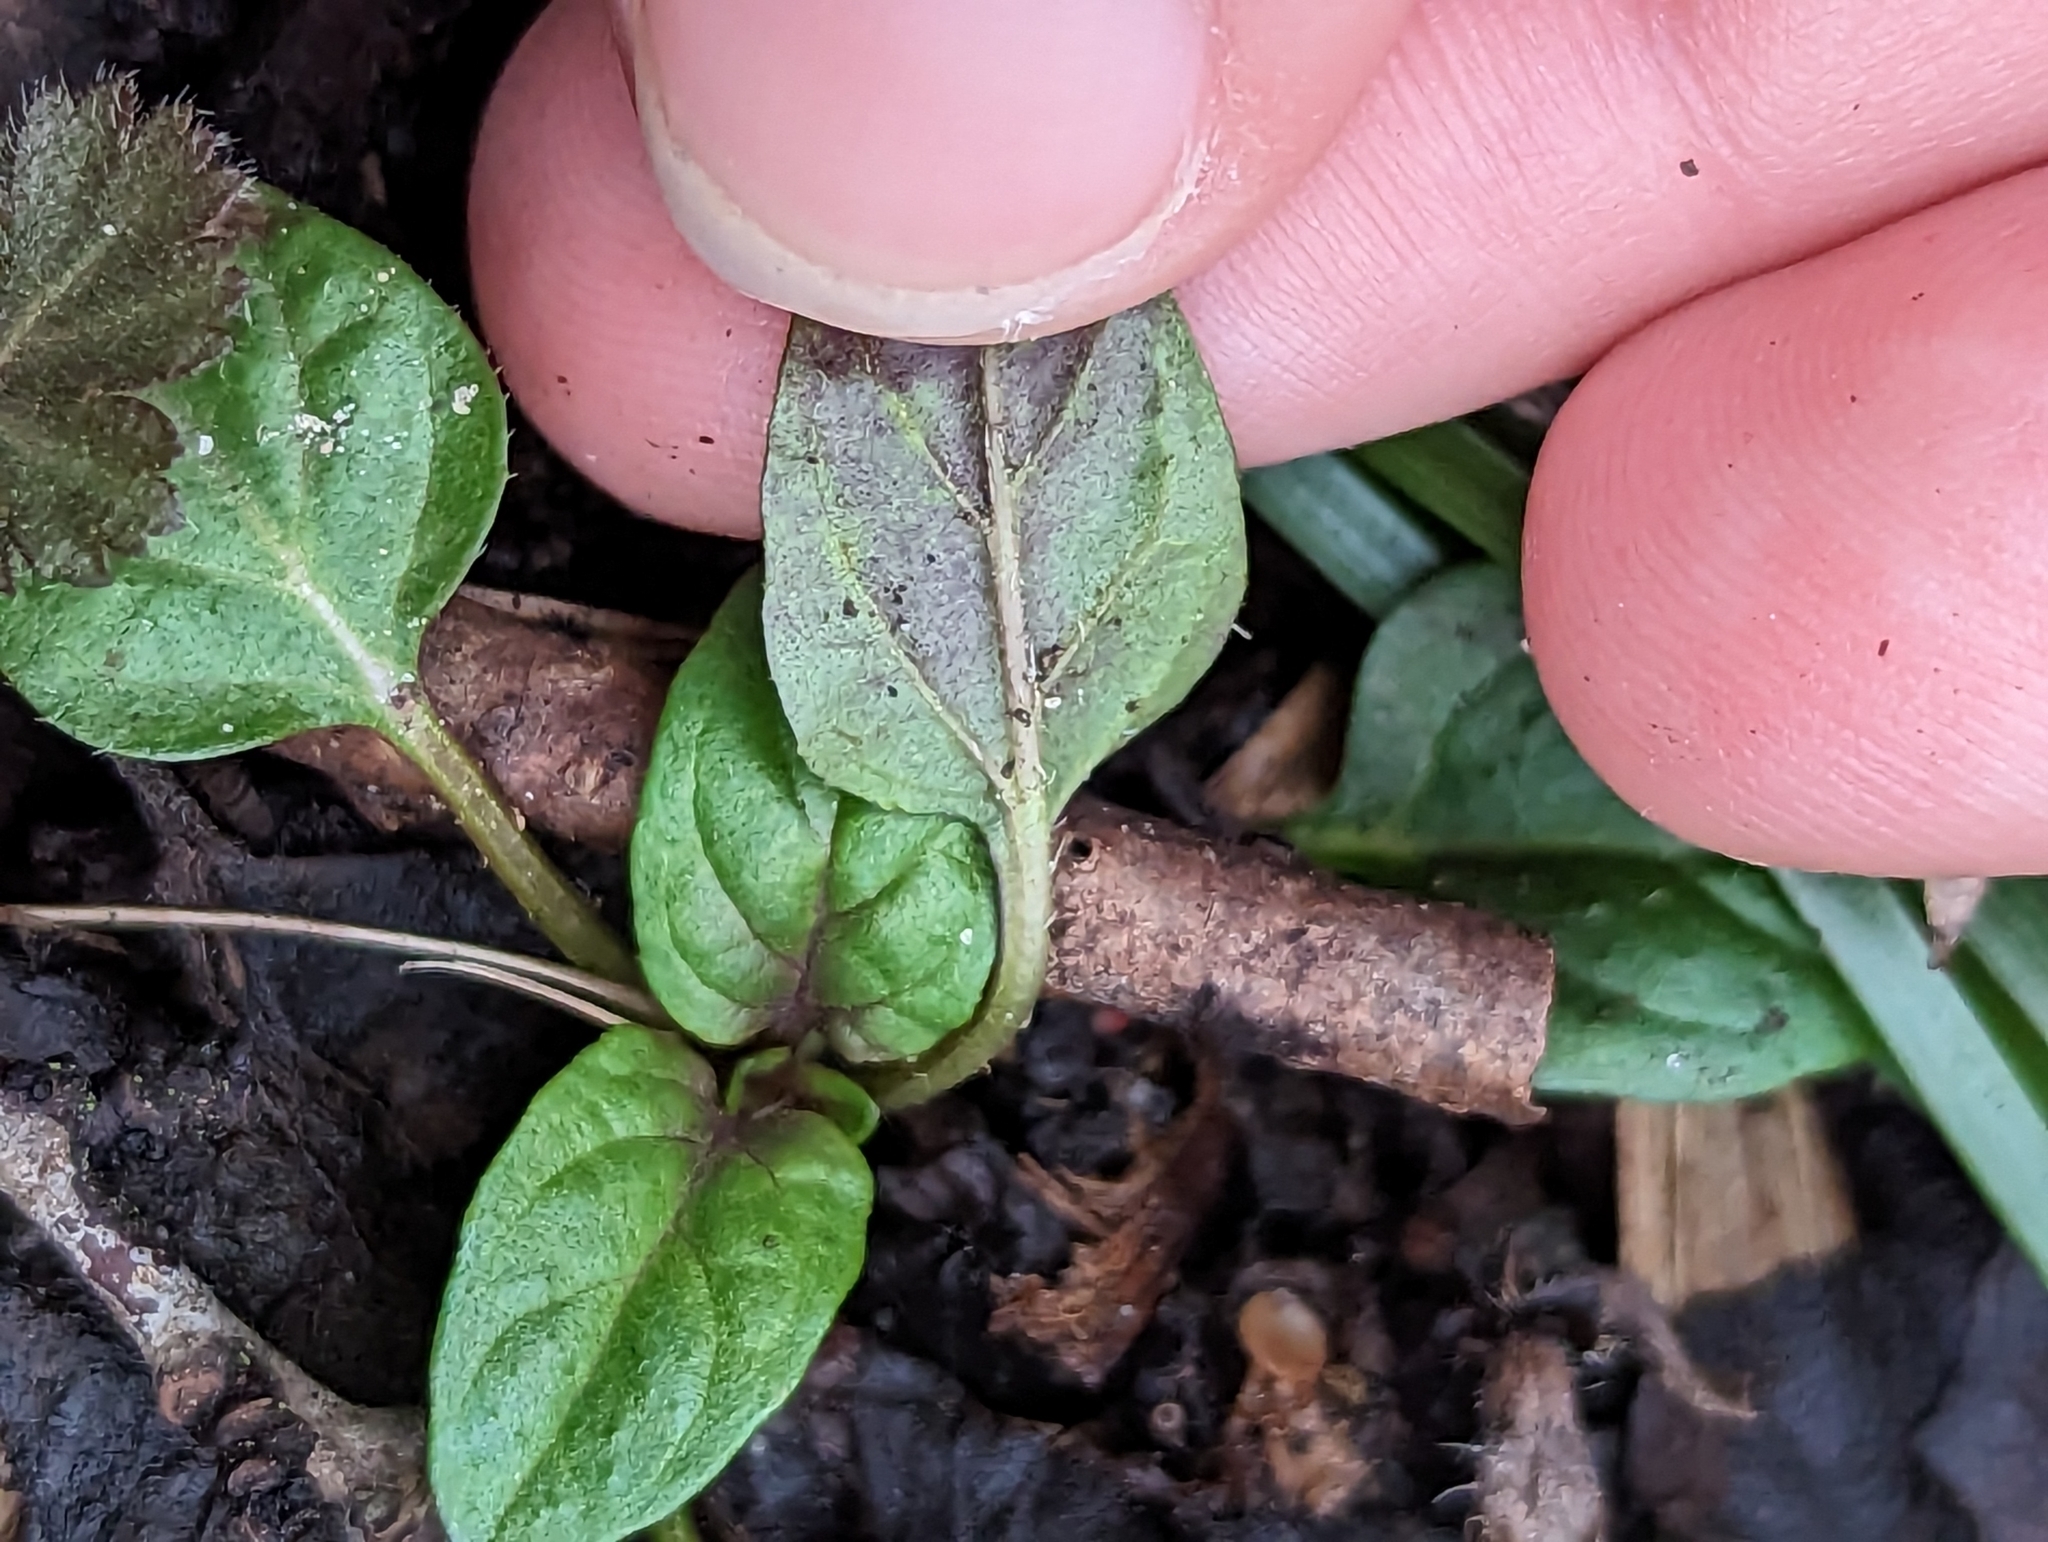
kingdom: Plantae
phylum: Tracheophyta
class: Magnoliopsida
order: Lamiales
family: Lamiaceae
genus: Prunella
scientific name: Prunella vulgaris
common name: Heal-all
